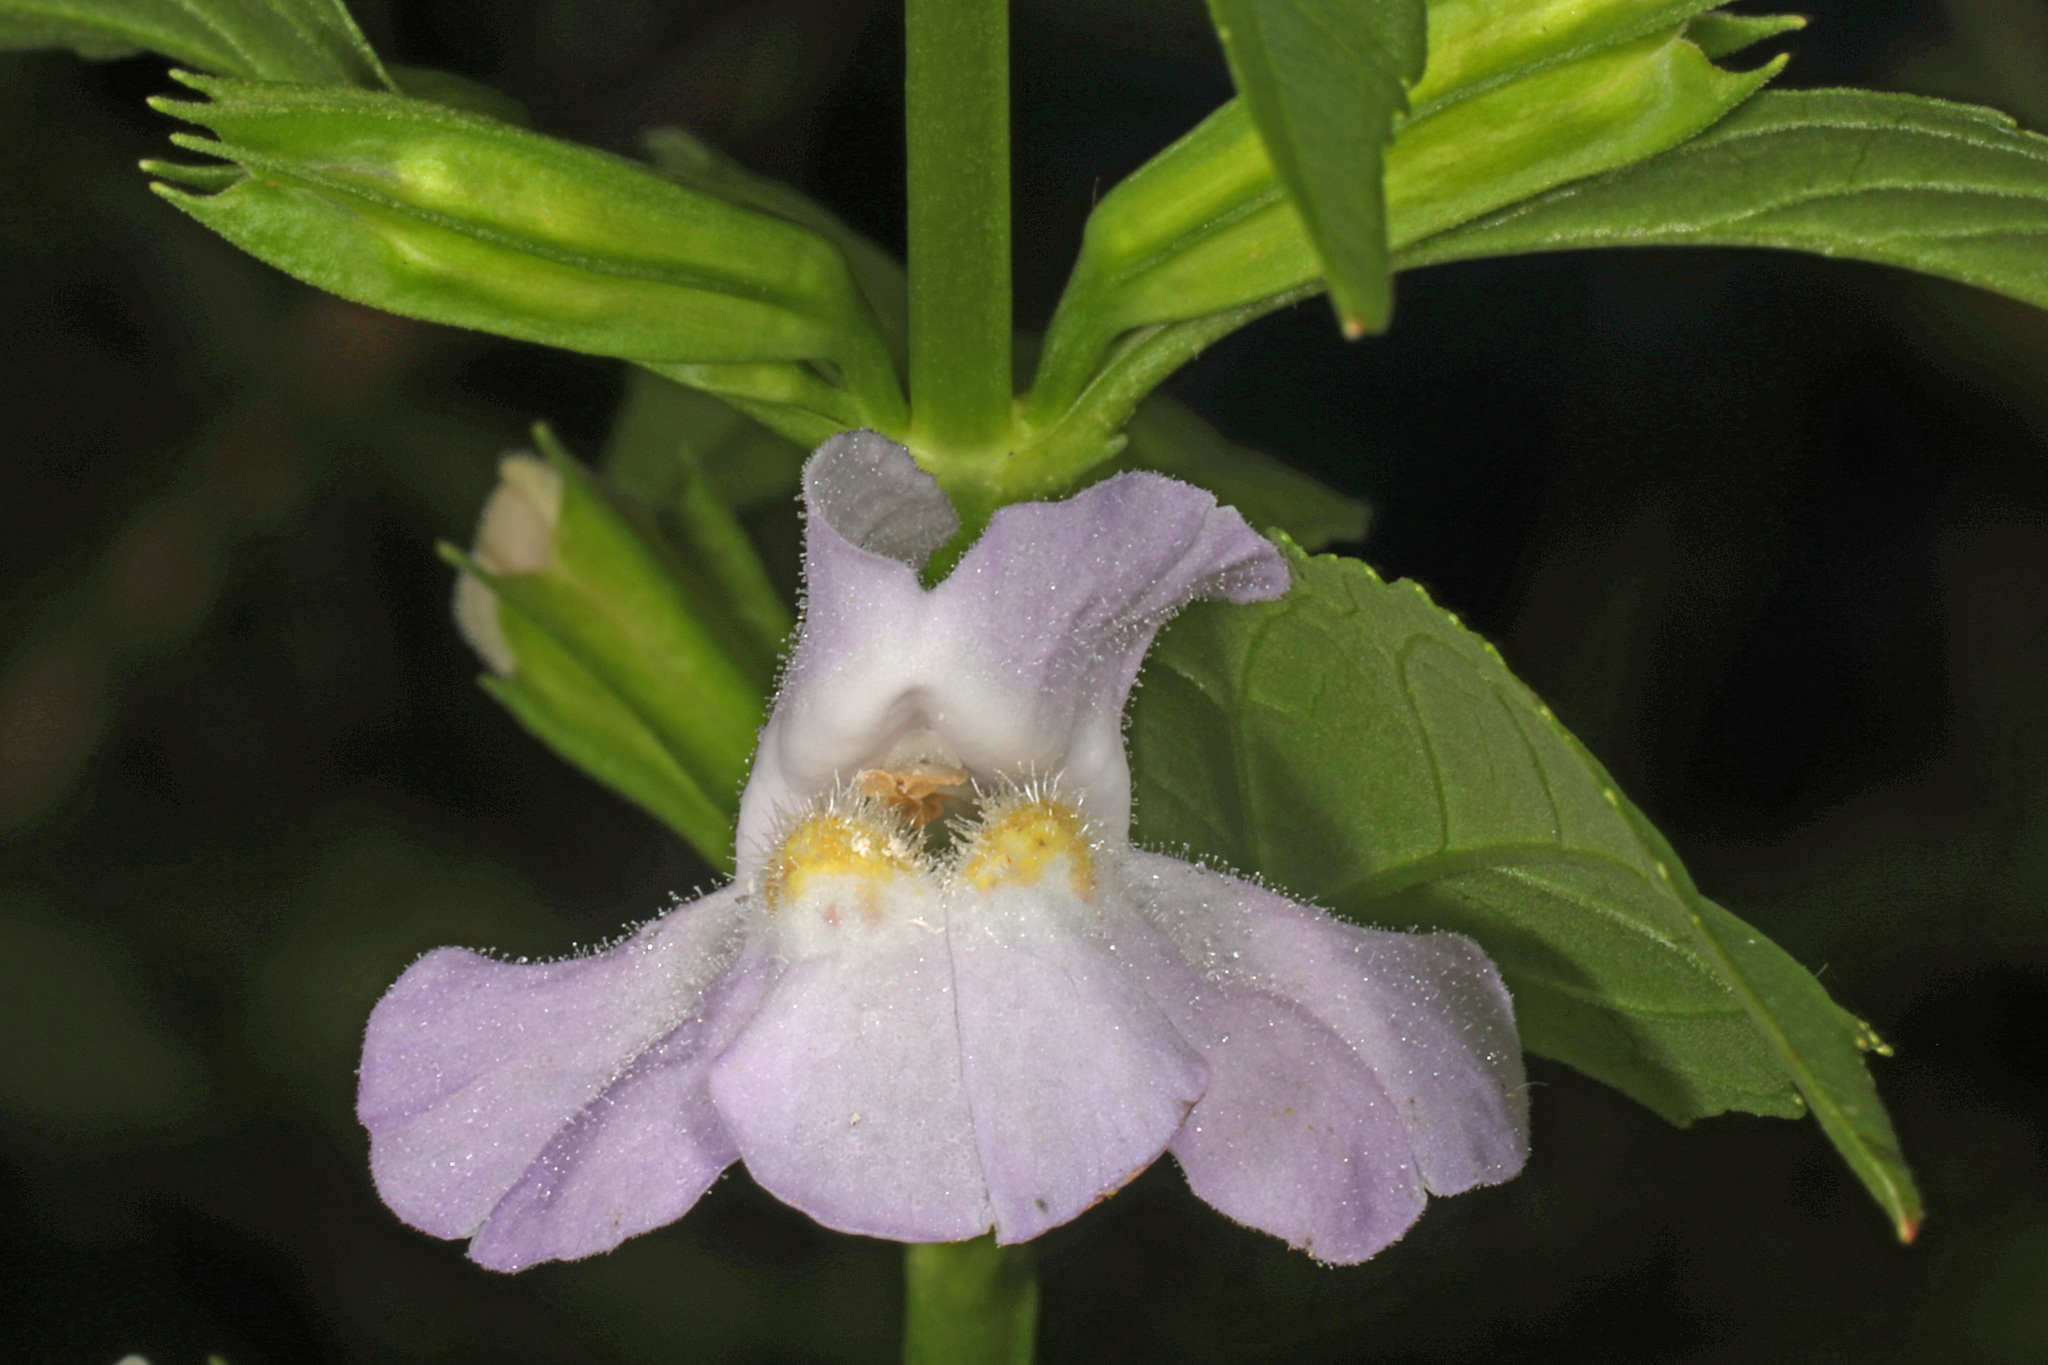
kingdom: Plantae
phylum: Tracheophyta
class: Magnoliopsida
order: Lamiales
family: Phrymaceae
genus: Mimulus
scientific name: Mimulus alatus
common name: Sharp-wing monkey-flower
